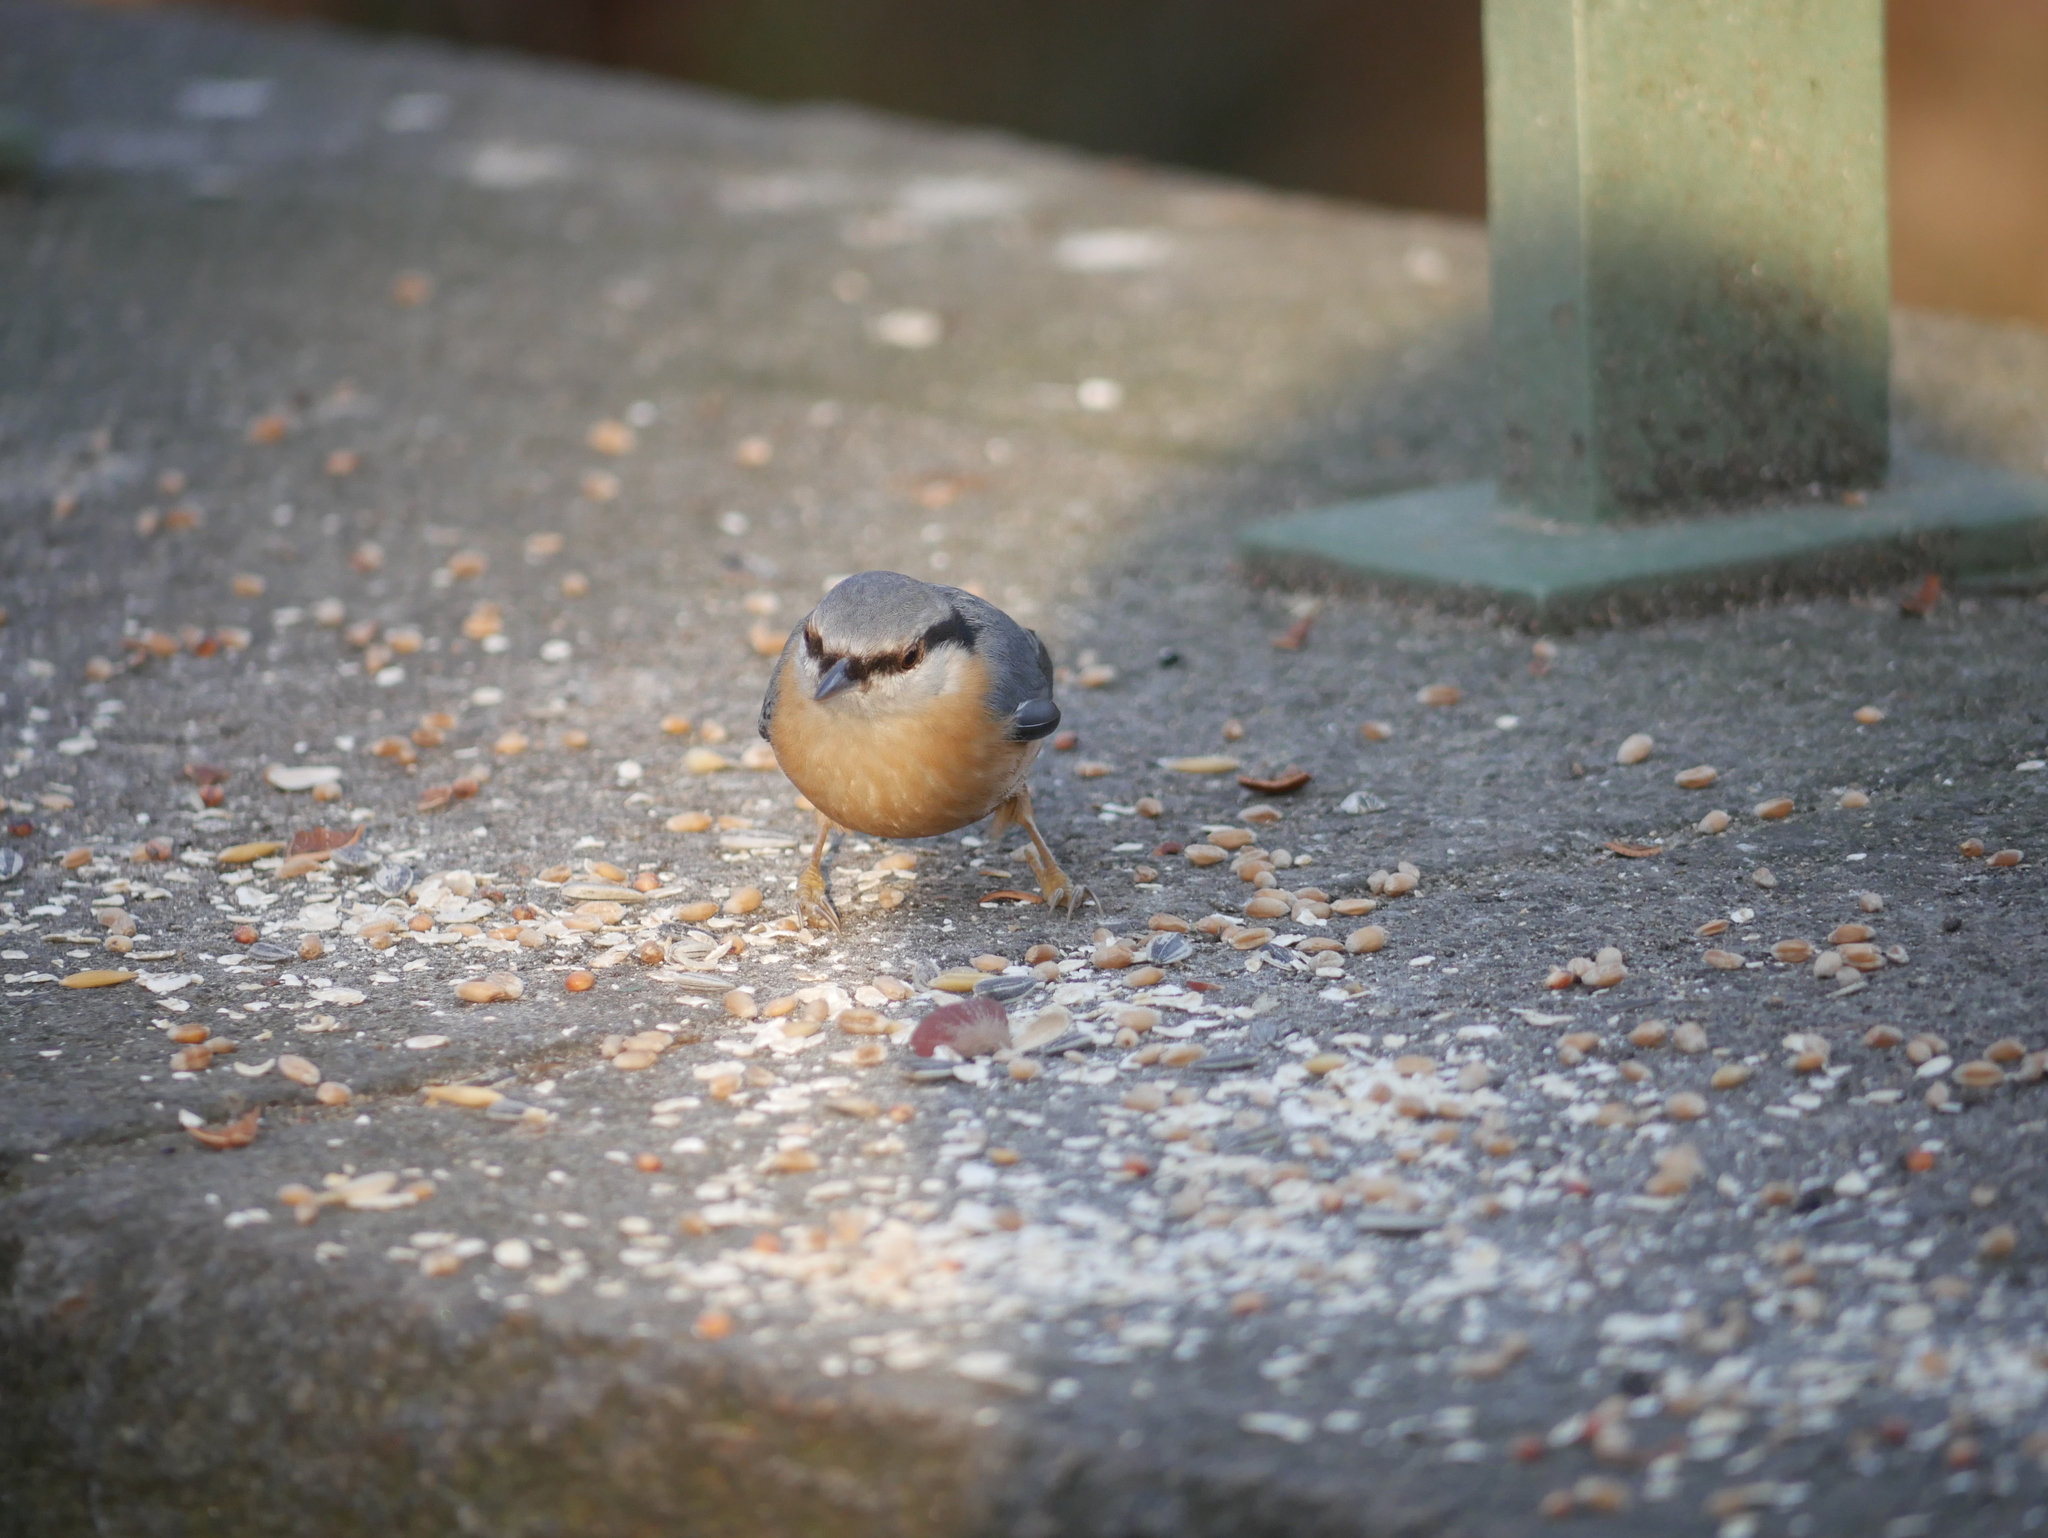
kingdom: Animalia
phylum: Chordata
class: Aves
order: Passeriformes
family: Sittidae
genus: Sitta
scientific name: Sitta europaea
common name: Eurasian nuthatch
